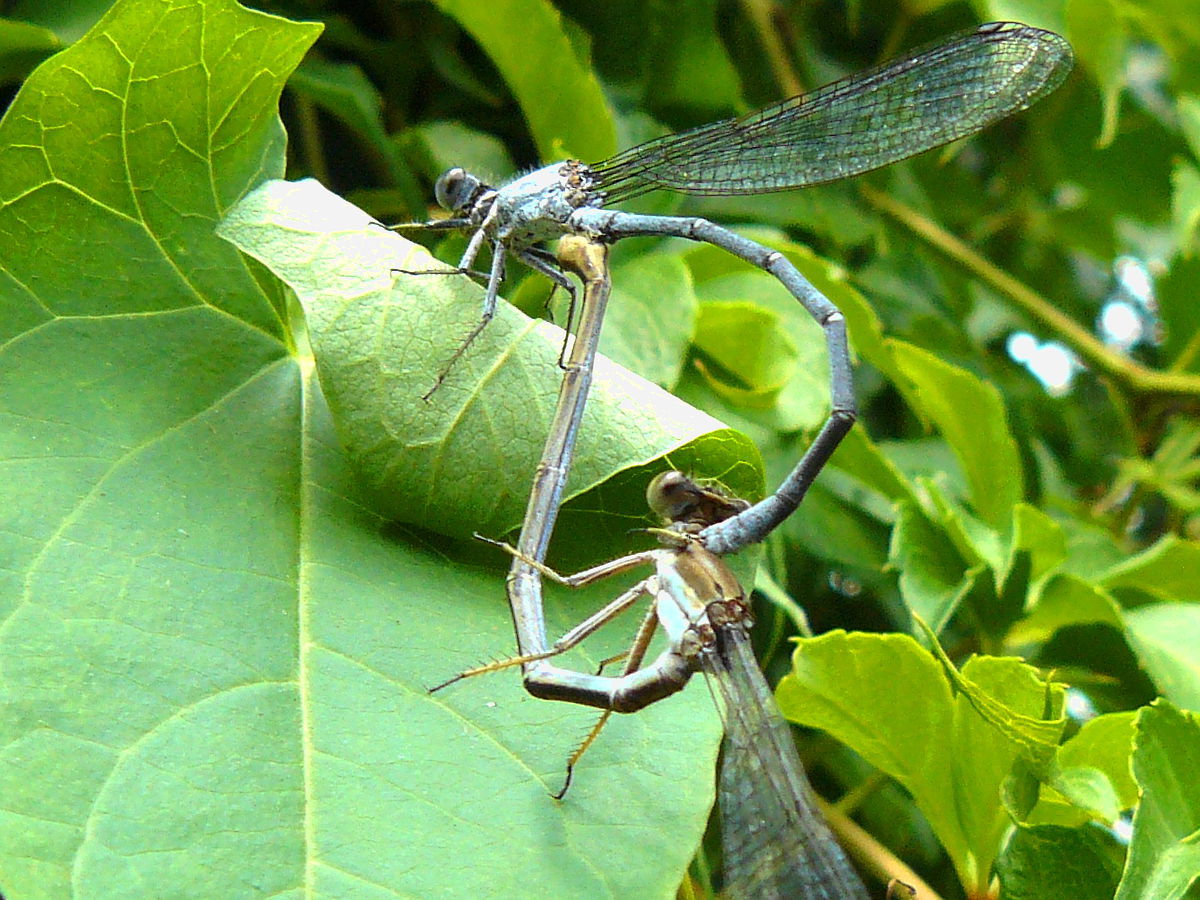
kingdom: Animalia
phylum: Arthropoda
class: Insecta
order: Odonata
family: Coenagrionidae
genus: Argia
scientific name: Argia moesta
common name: Powdered dancer
